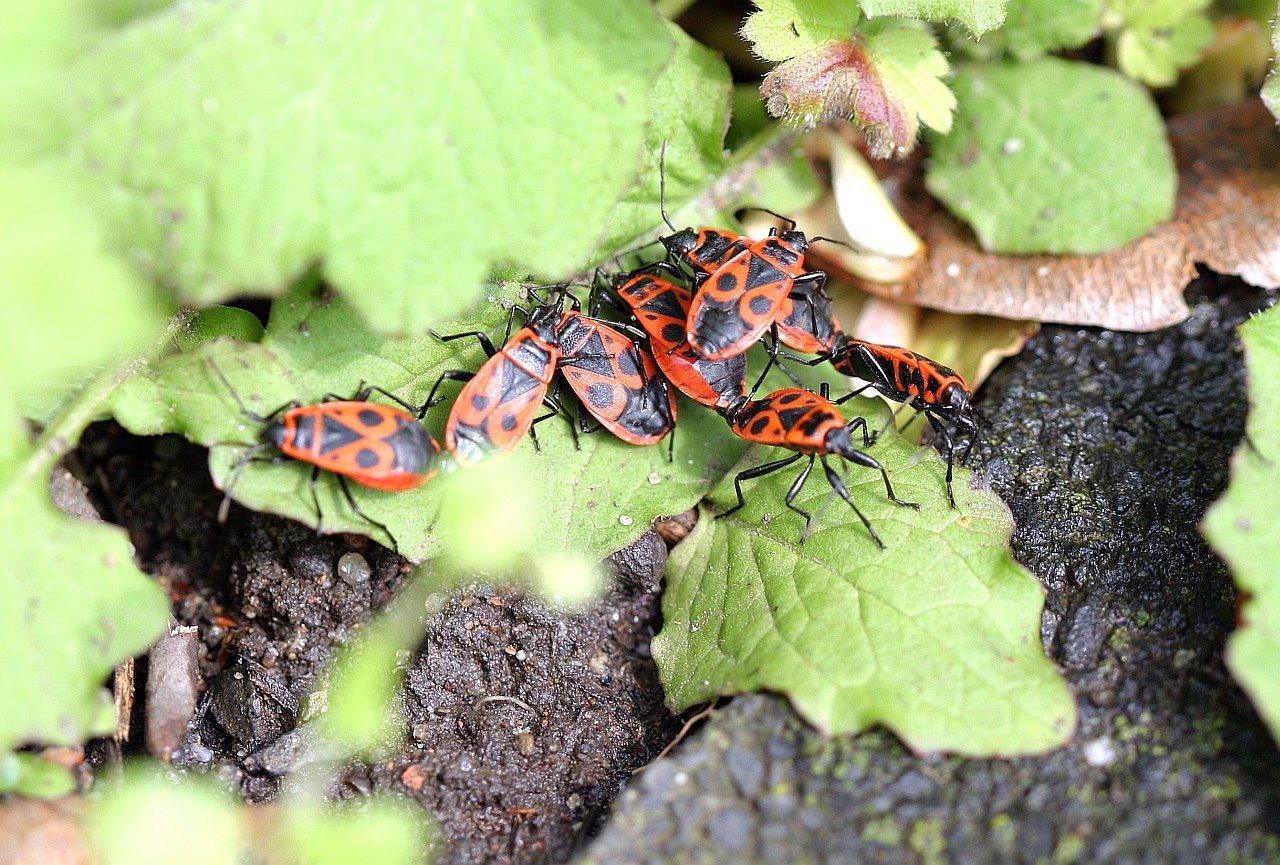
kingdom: Animalia
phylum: Arthropoda
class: Insecta
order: Hemiptera
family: Pyrrhocoridae
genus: Pyrrhocoris
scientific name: Pyrrhocoris apterus
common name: Firebug
